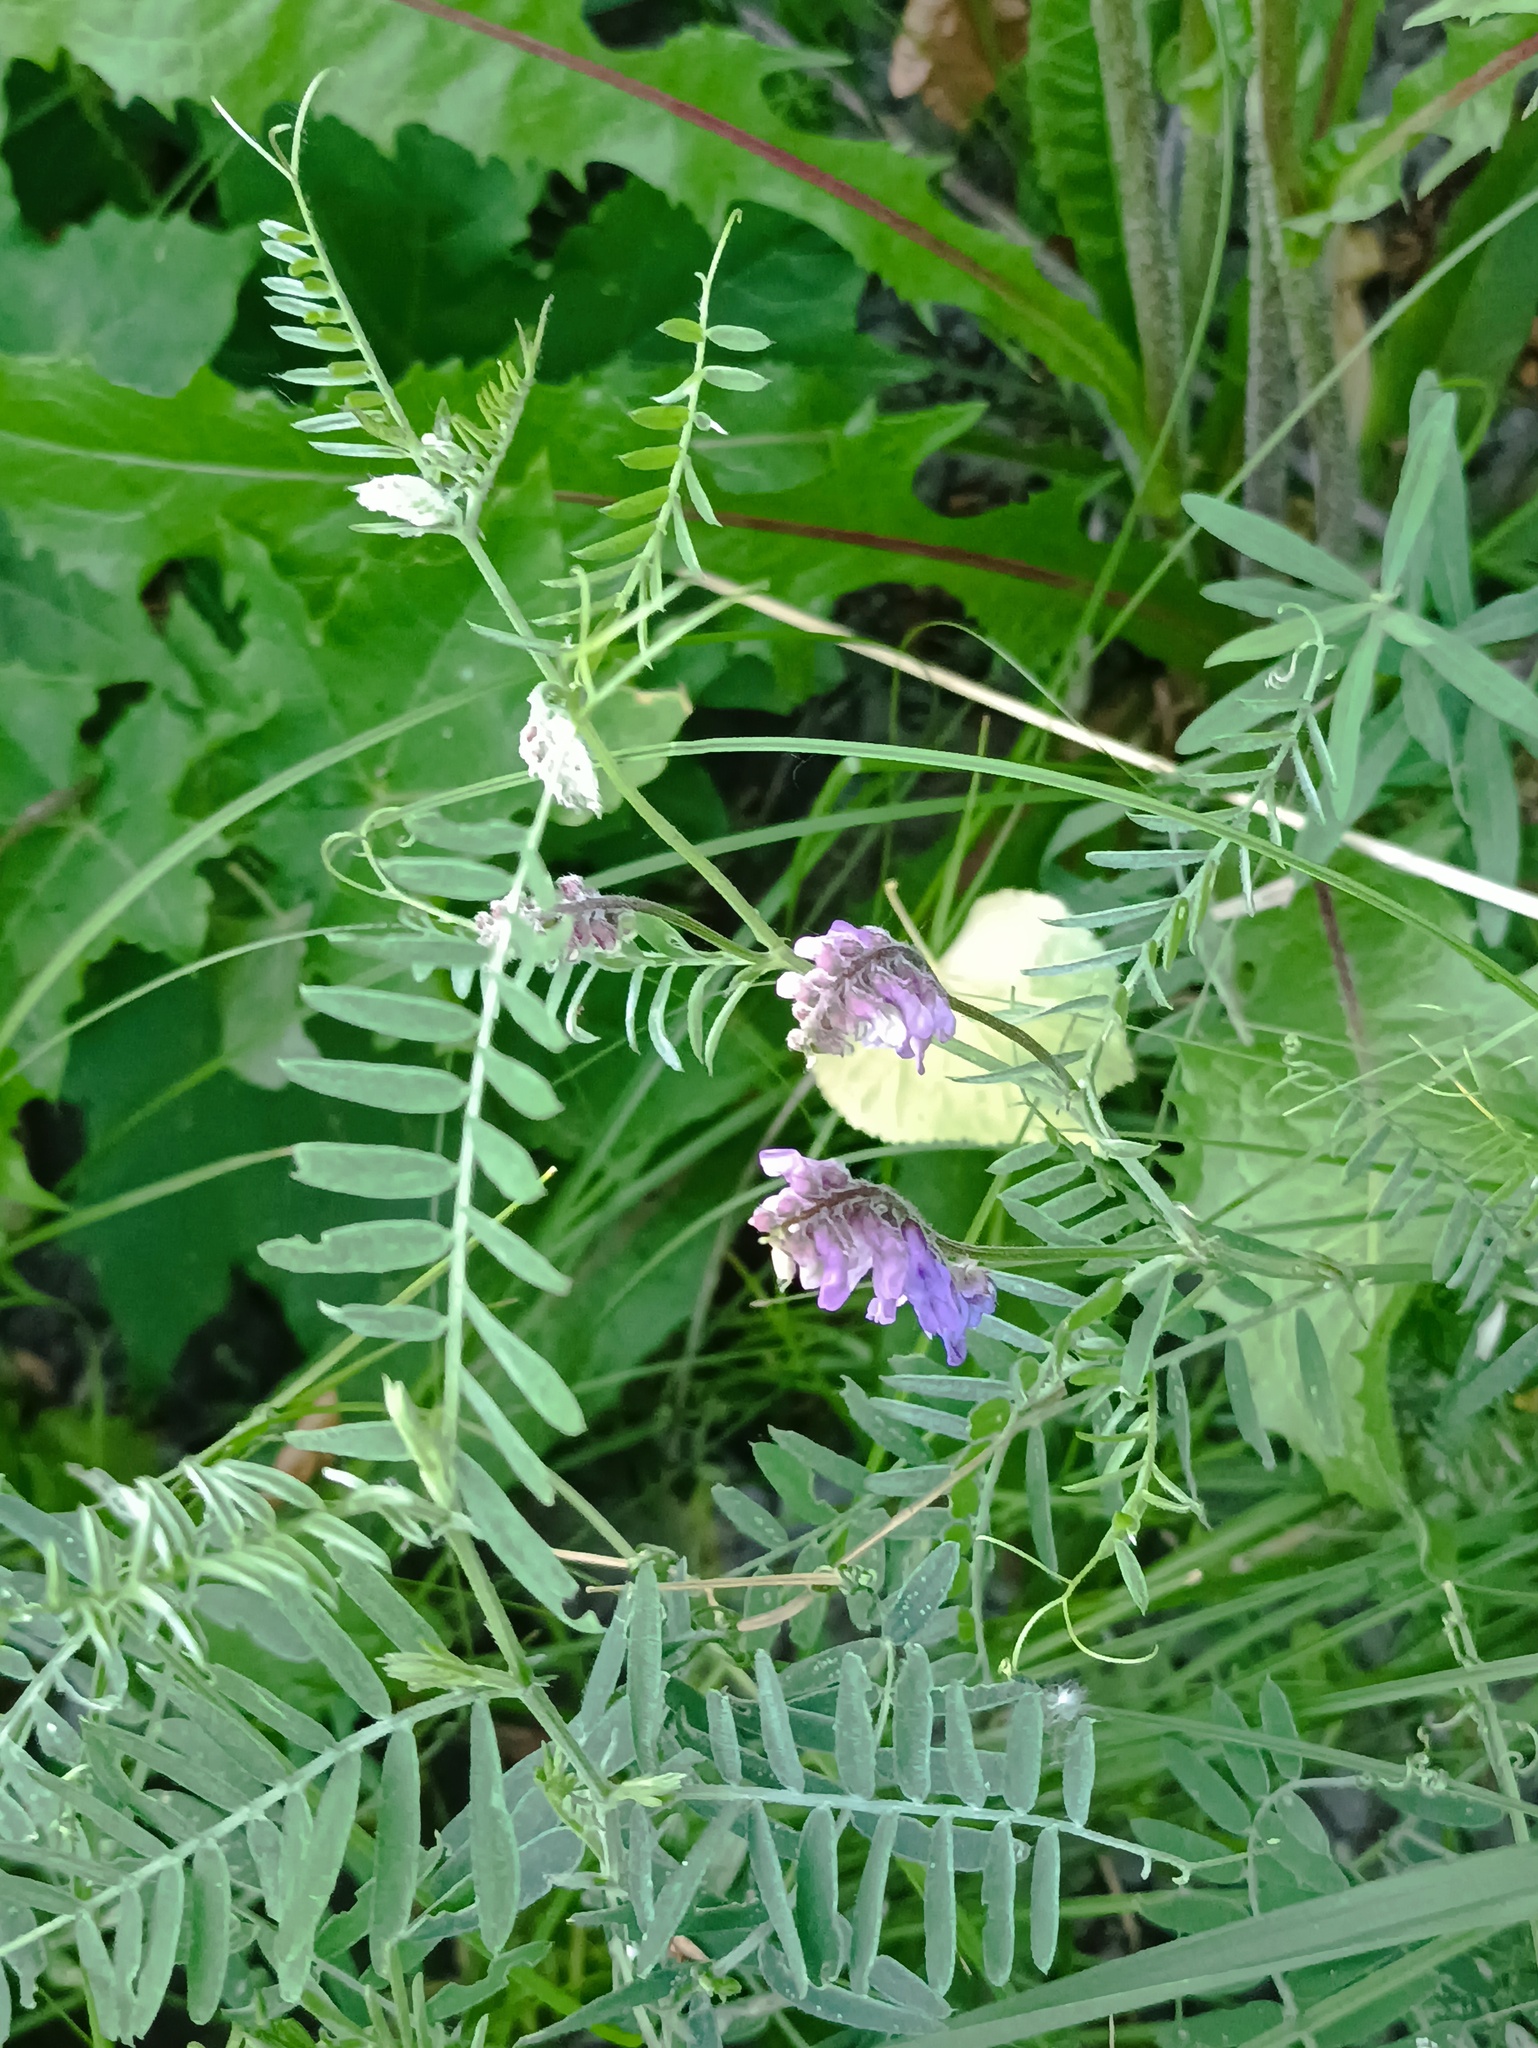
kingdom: Plantae
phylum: Tracheophyta
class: Magnoliopsida
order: Fabales
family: Fabaceae
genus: Vicia
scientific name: Vicia cracca
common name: Bird vetch
